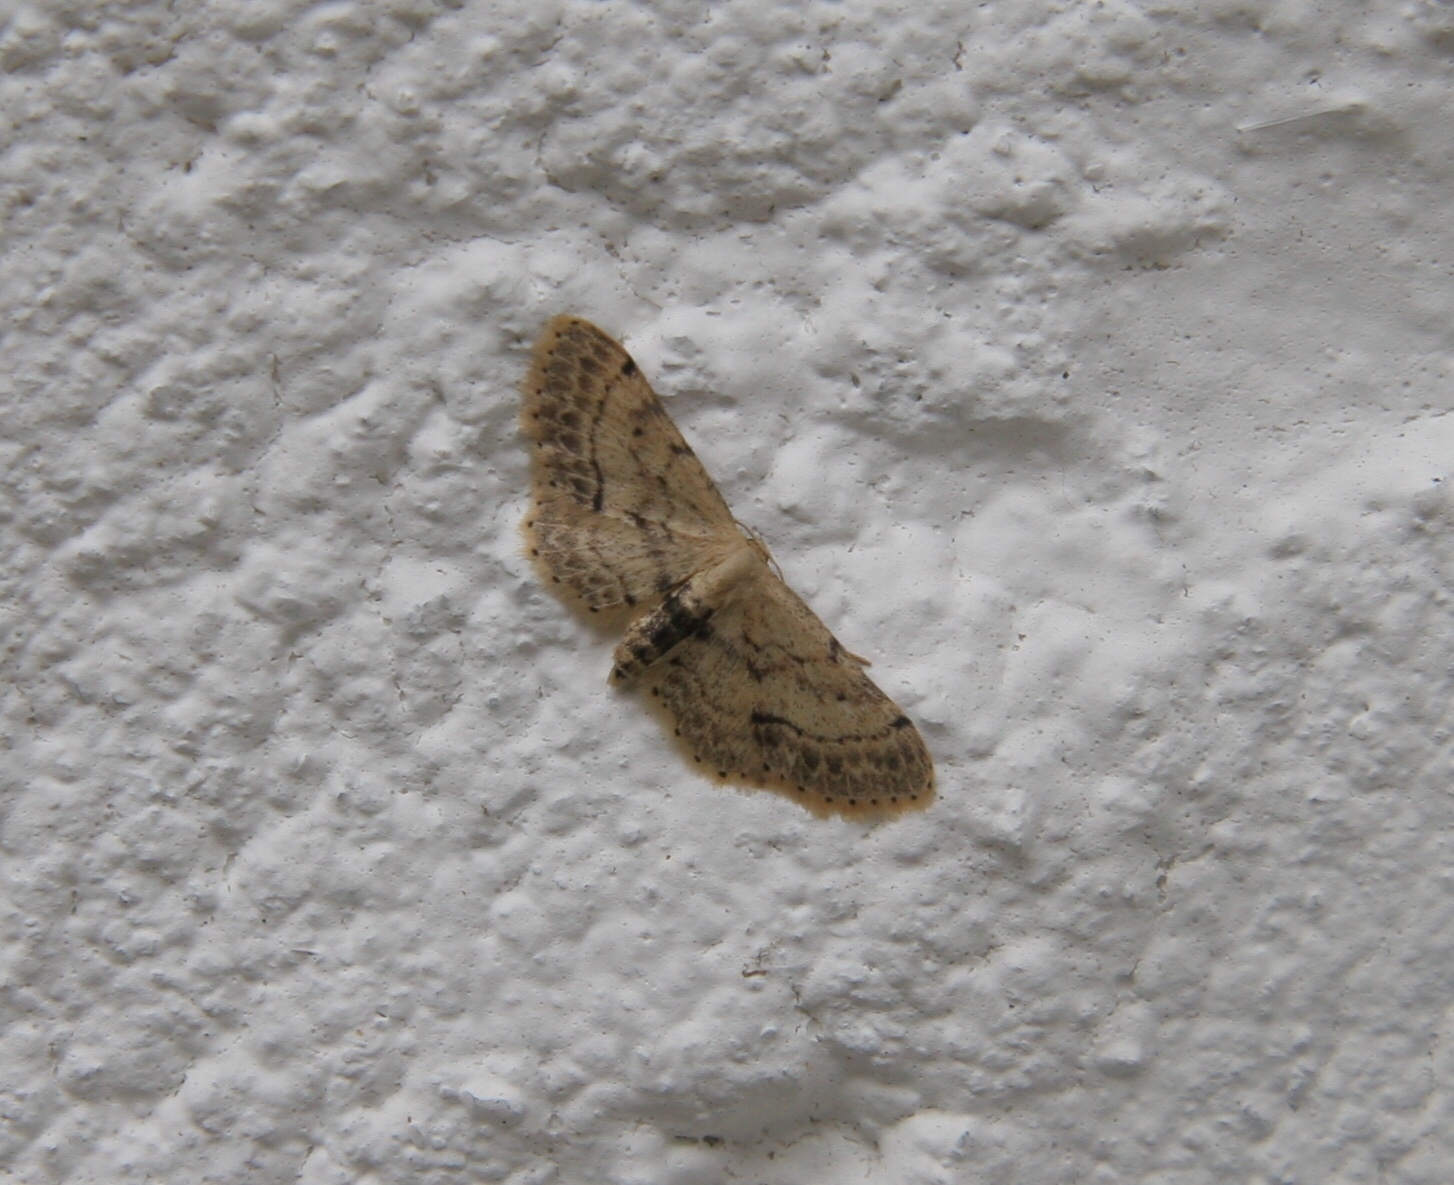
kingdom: Animalia
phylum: Arthropoda
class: Insecta
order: Lepidoptera
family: Geometridae
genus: Idaea
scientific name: Idaea dimidiata
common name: Single-dotted wave
